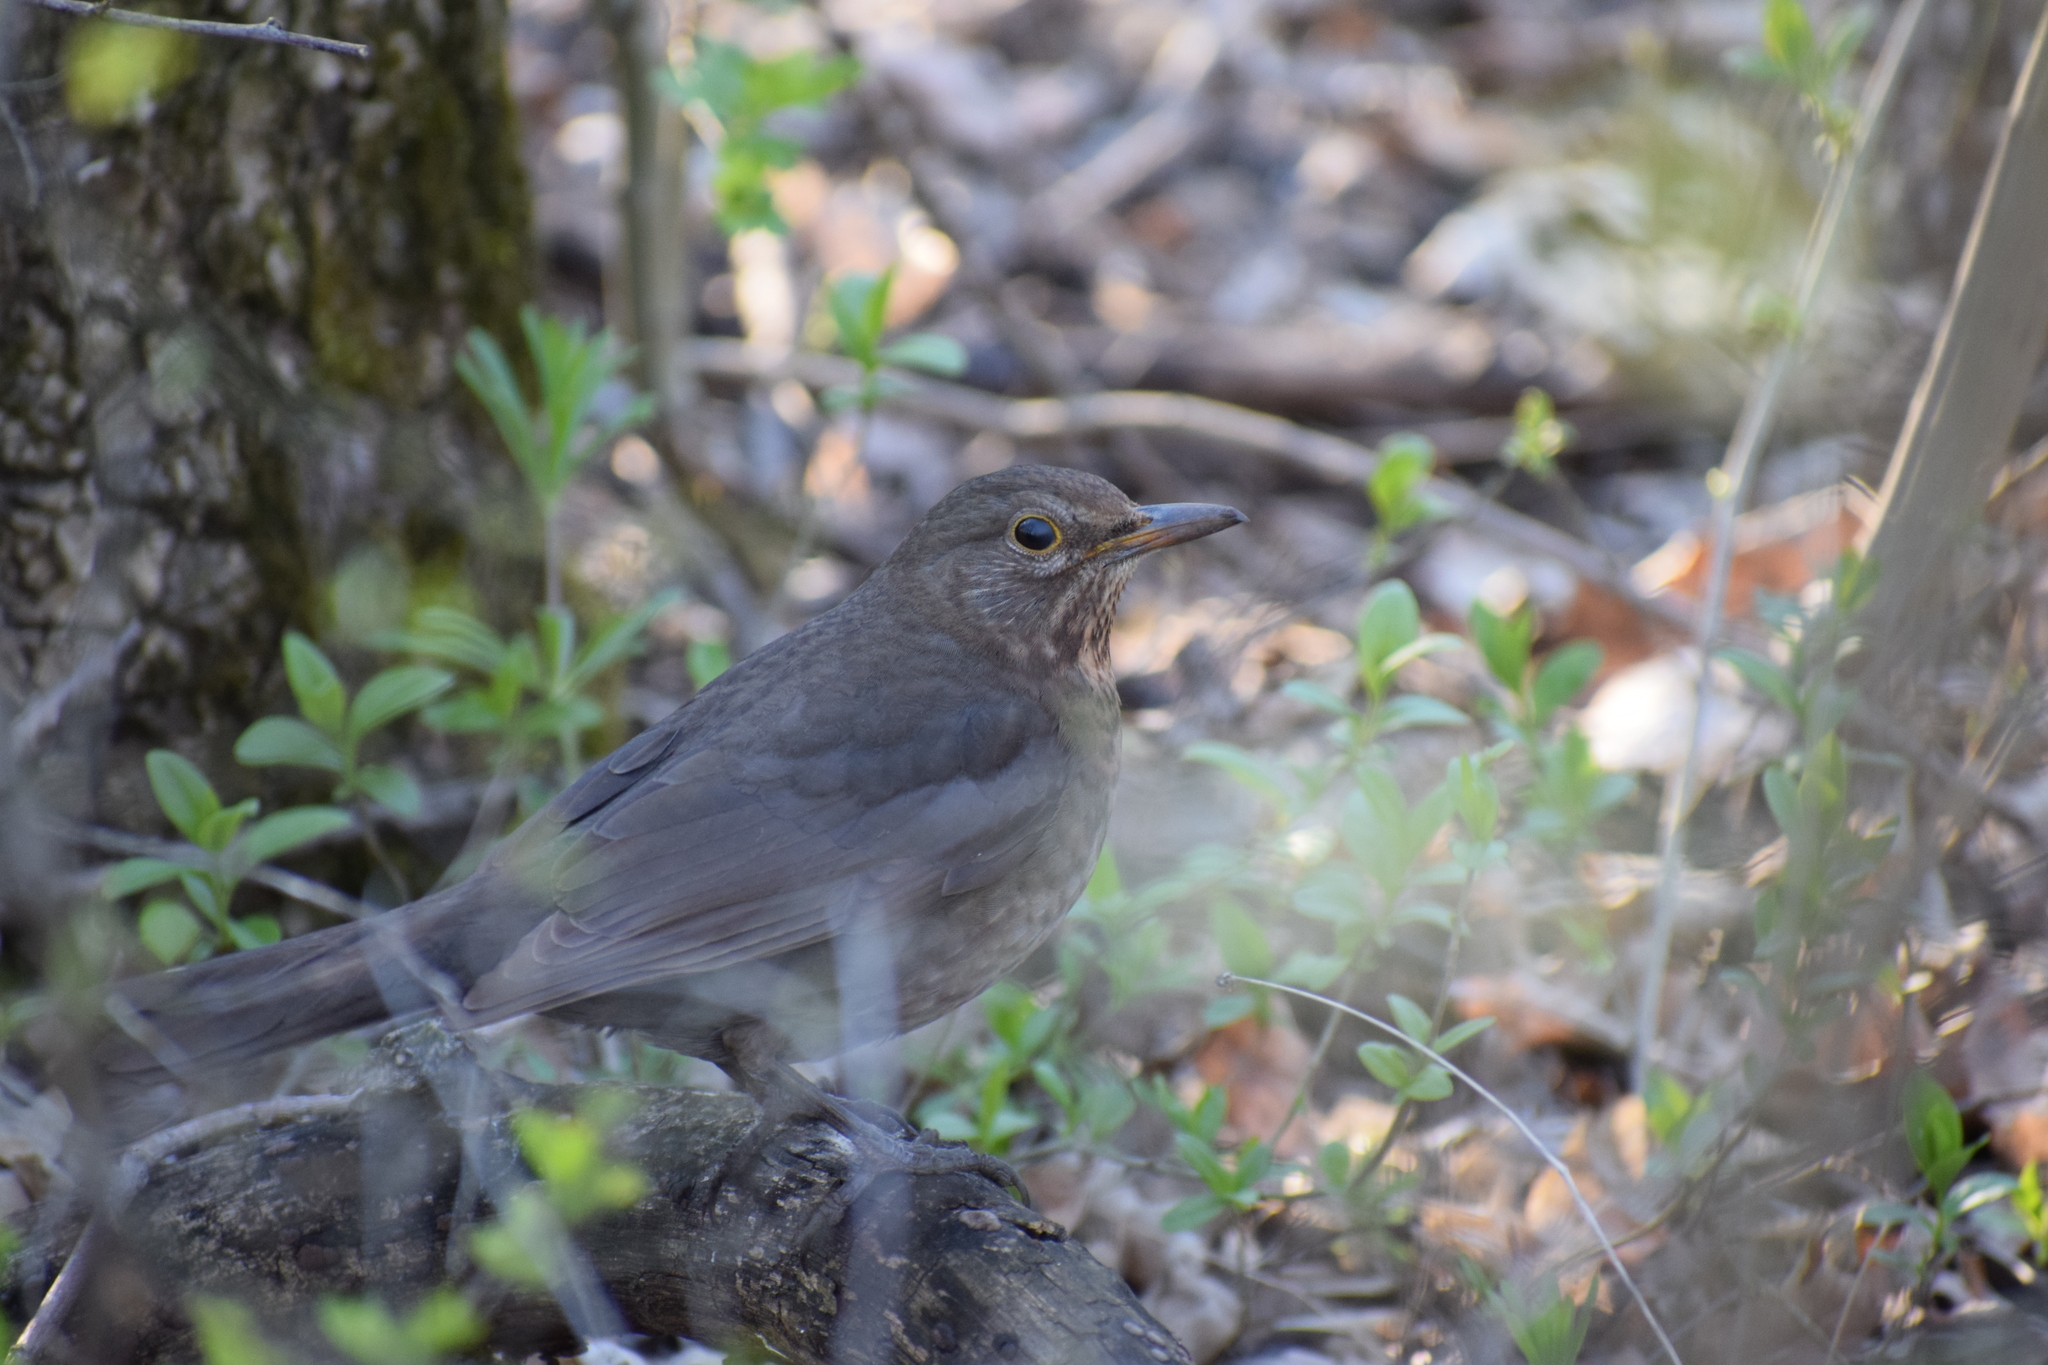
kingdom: Animalia
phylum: Chordata
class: Aves
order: Passeriformes
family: Turdidae
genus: Turdus
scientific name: Turdus merula
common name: Common blackbird
